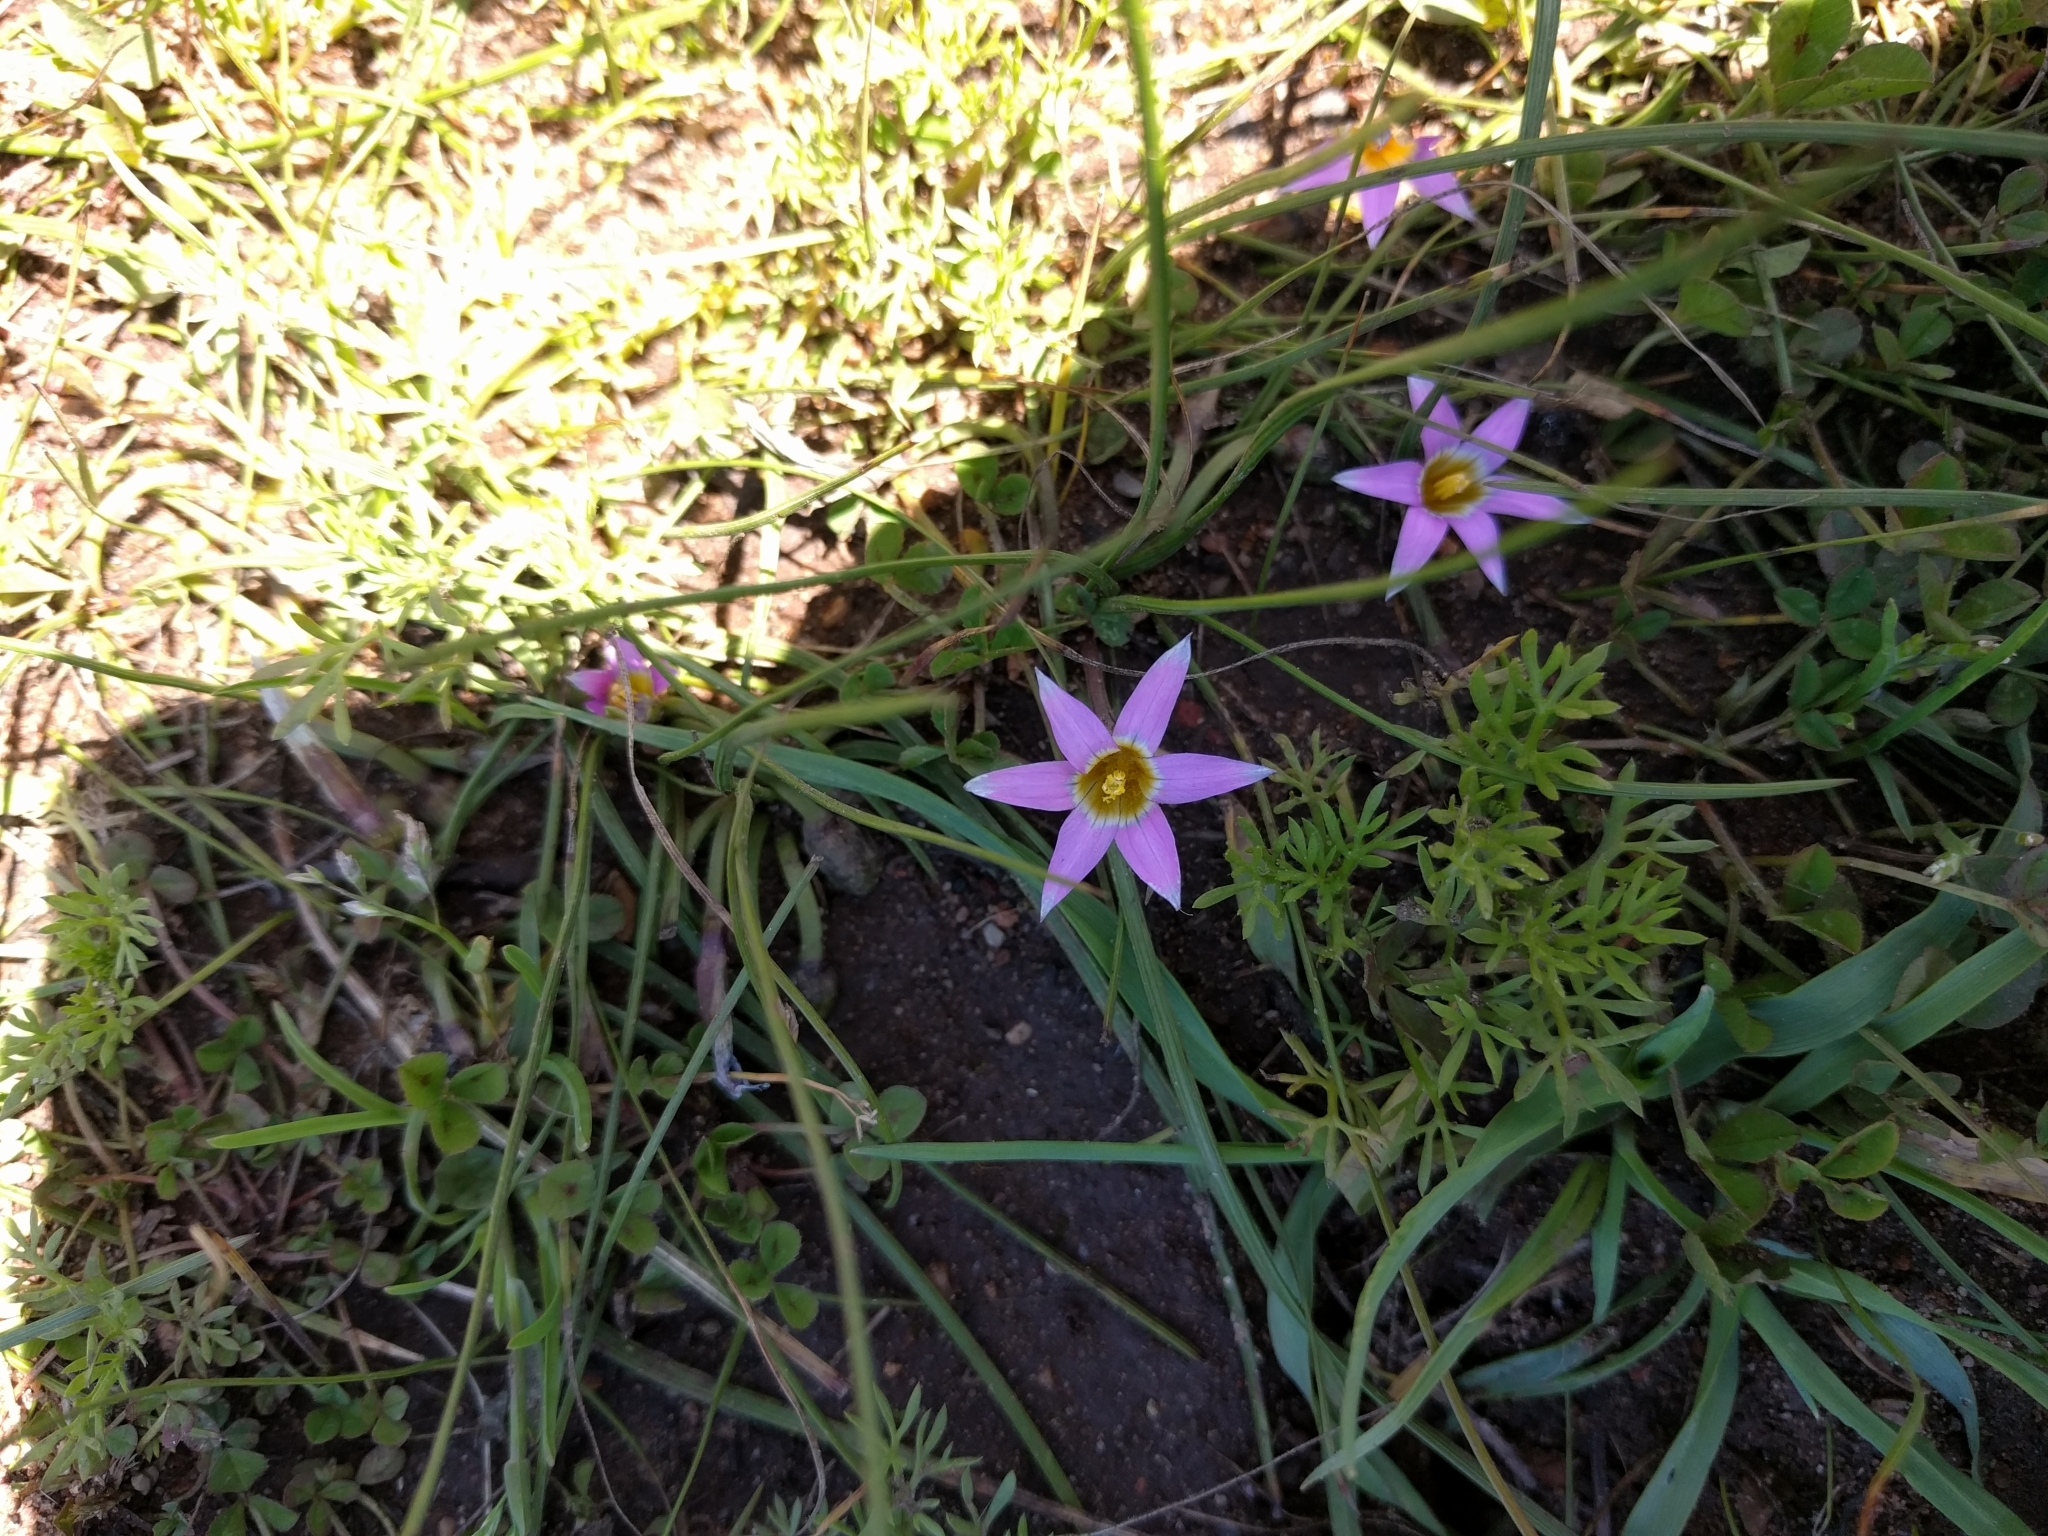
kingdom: Plantae
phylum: Tracheophyta
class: Liliopsida
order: Asparagales
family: Iridaceae
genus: Romulea
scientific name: Romulea rosea
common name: Oniongrass
